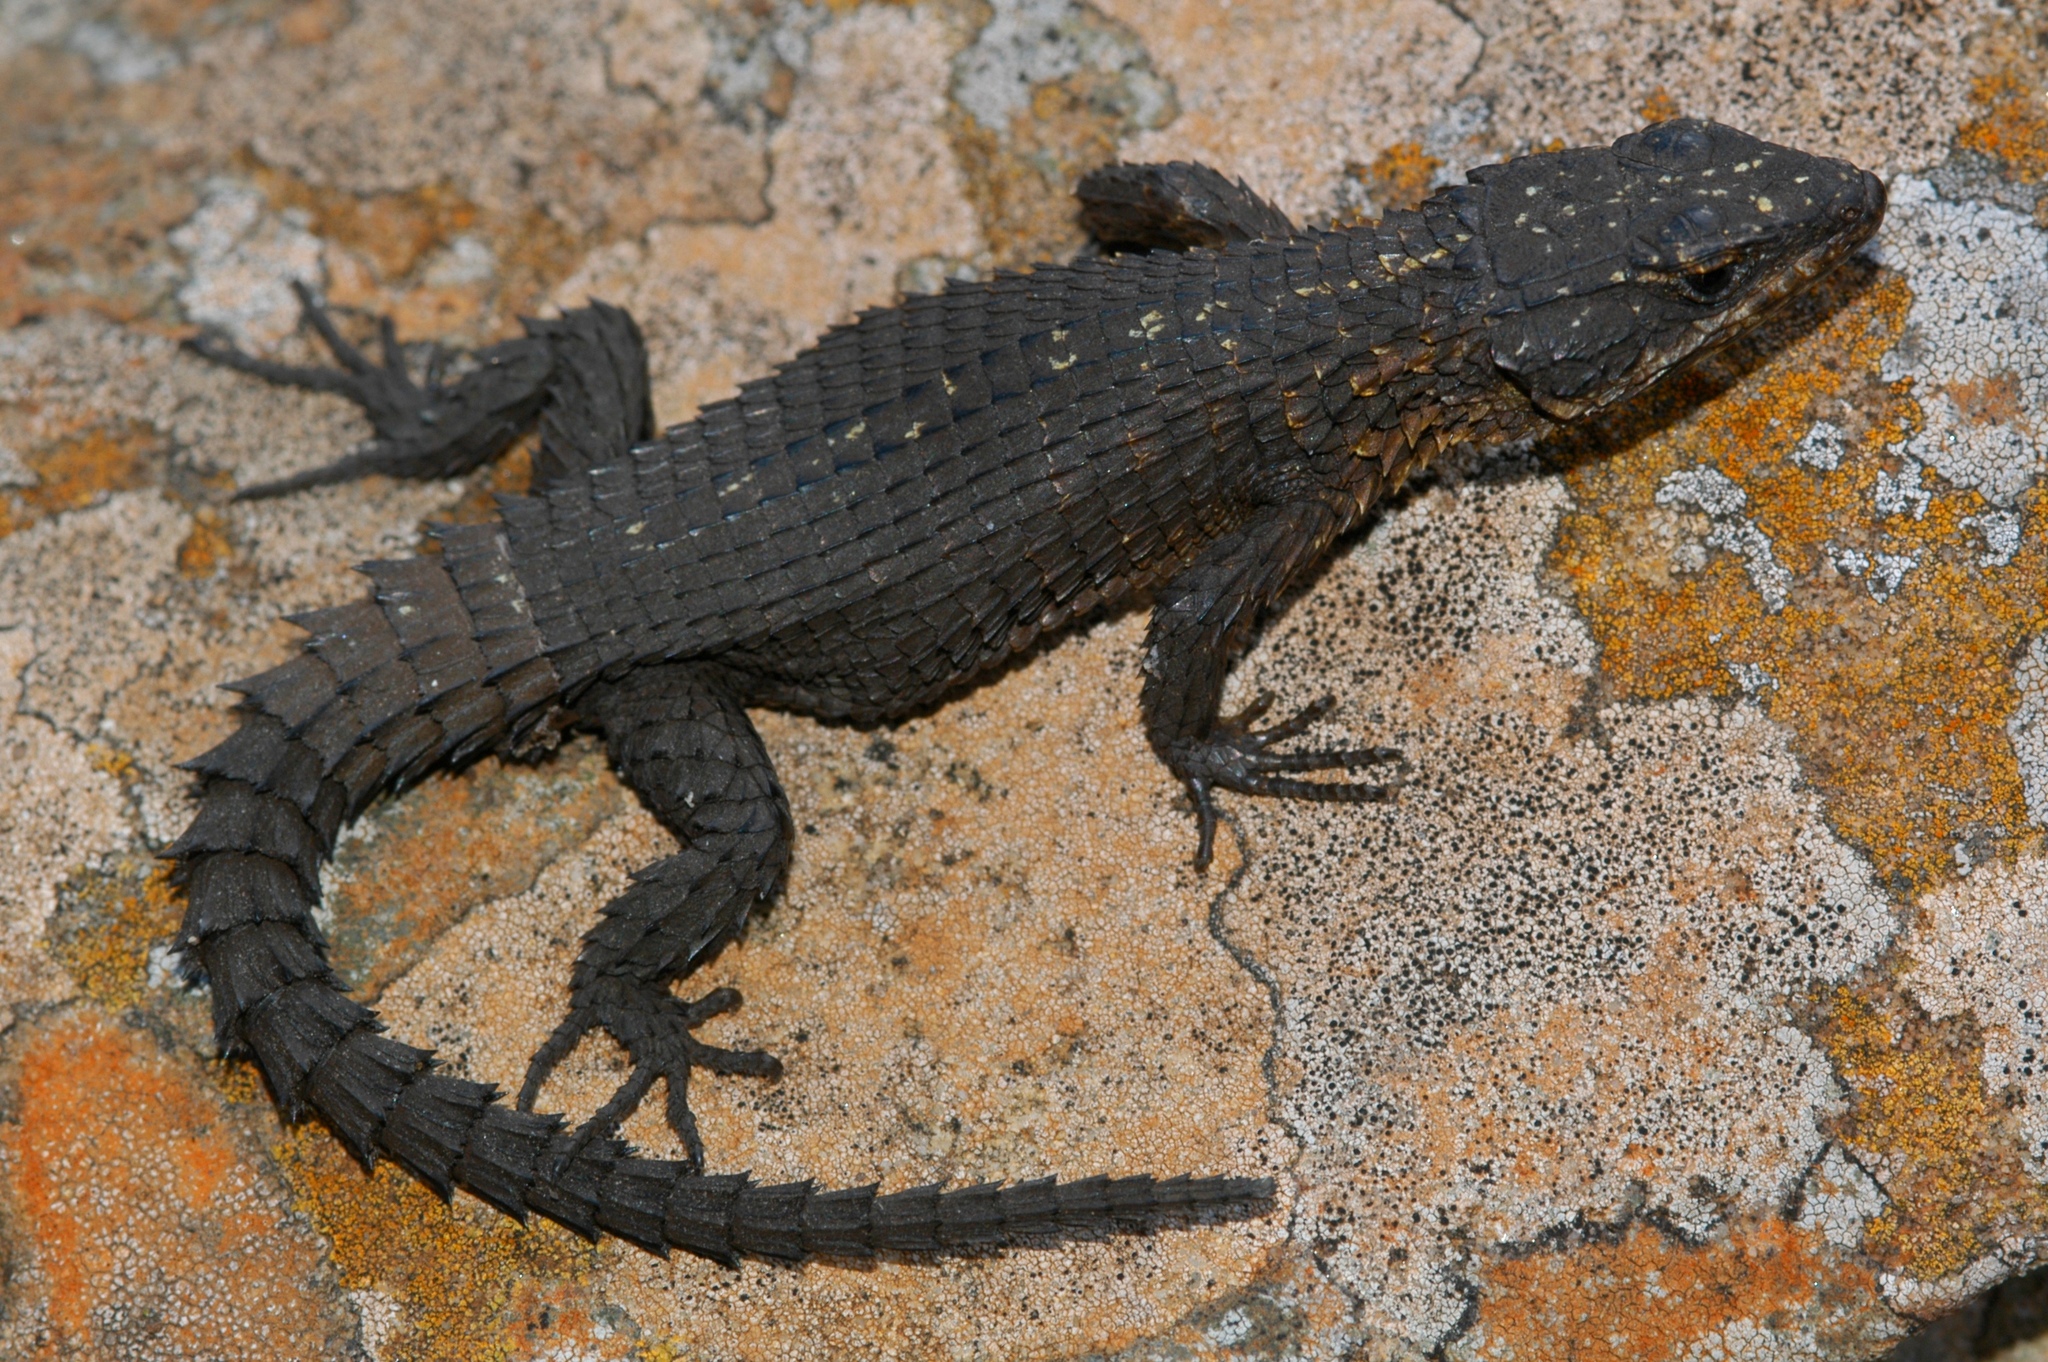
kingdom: Animalia
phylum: Chordata
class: Squamata
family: Cordylidae
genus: Cordylus
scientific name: Cordylus imkeae
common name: Rooiberg girdled lizard
